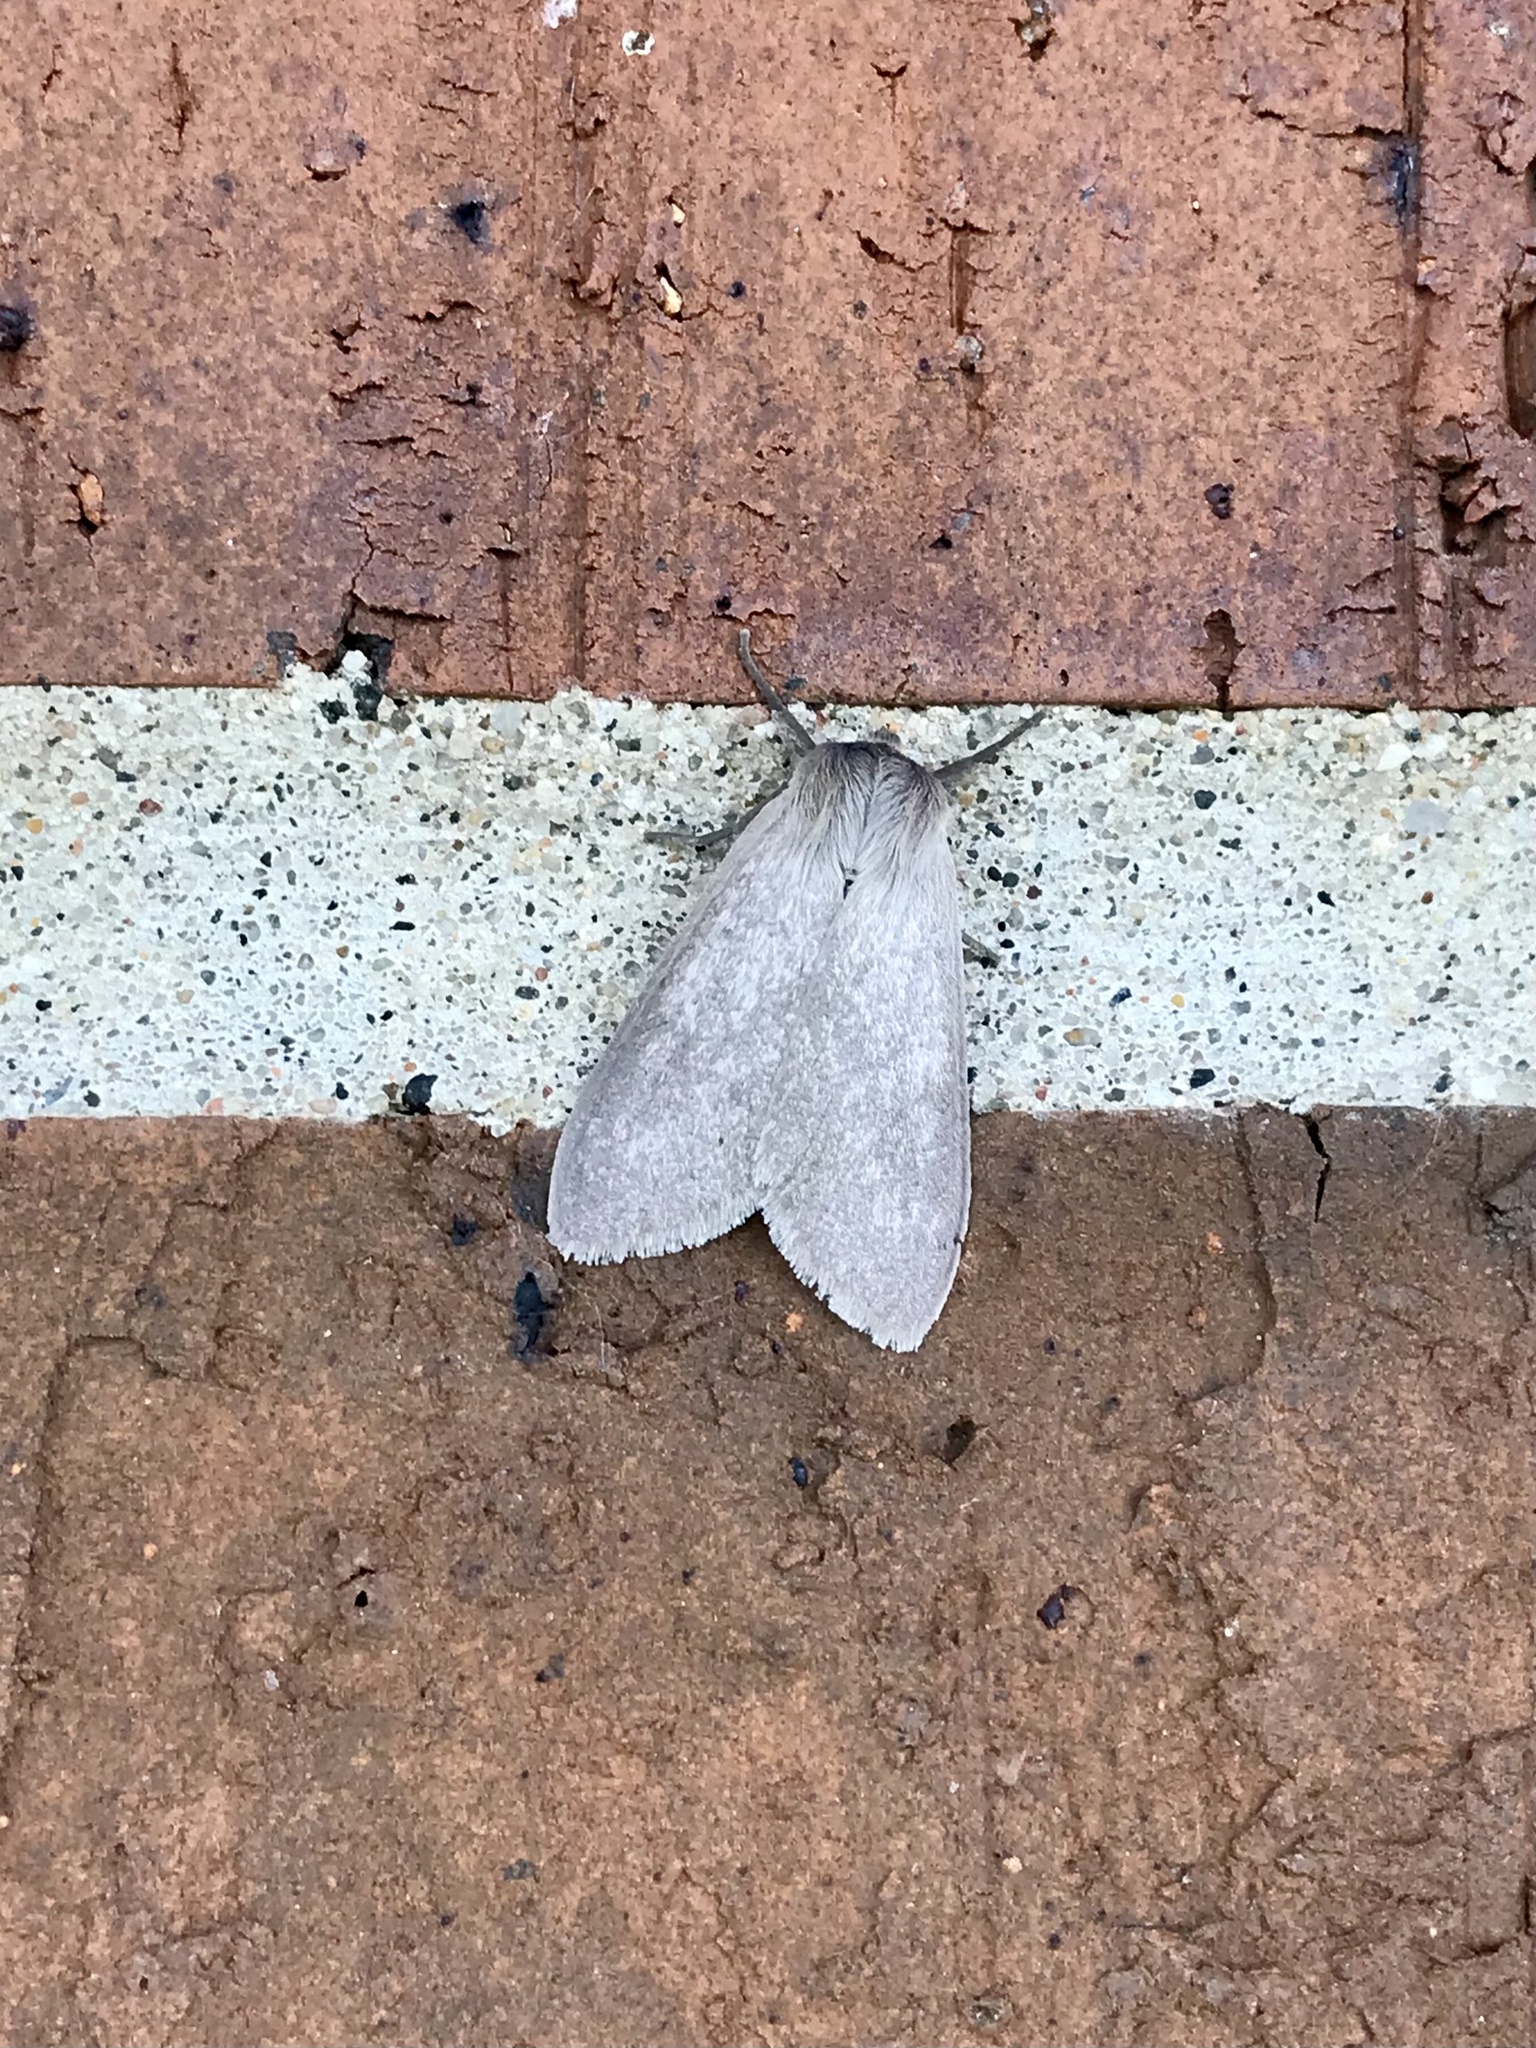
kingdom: Animalia
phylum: Arthropoda
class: Insecta
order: Lepidoptera
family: Erebidae
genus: Euchaetes
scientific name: Euchaetes egle
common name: Milkweed tussock moth
